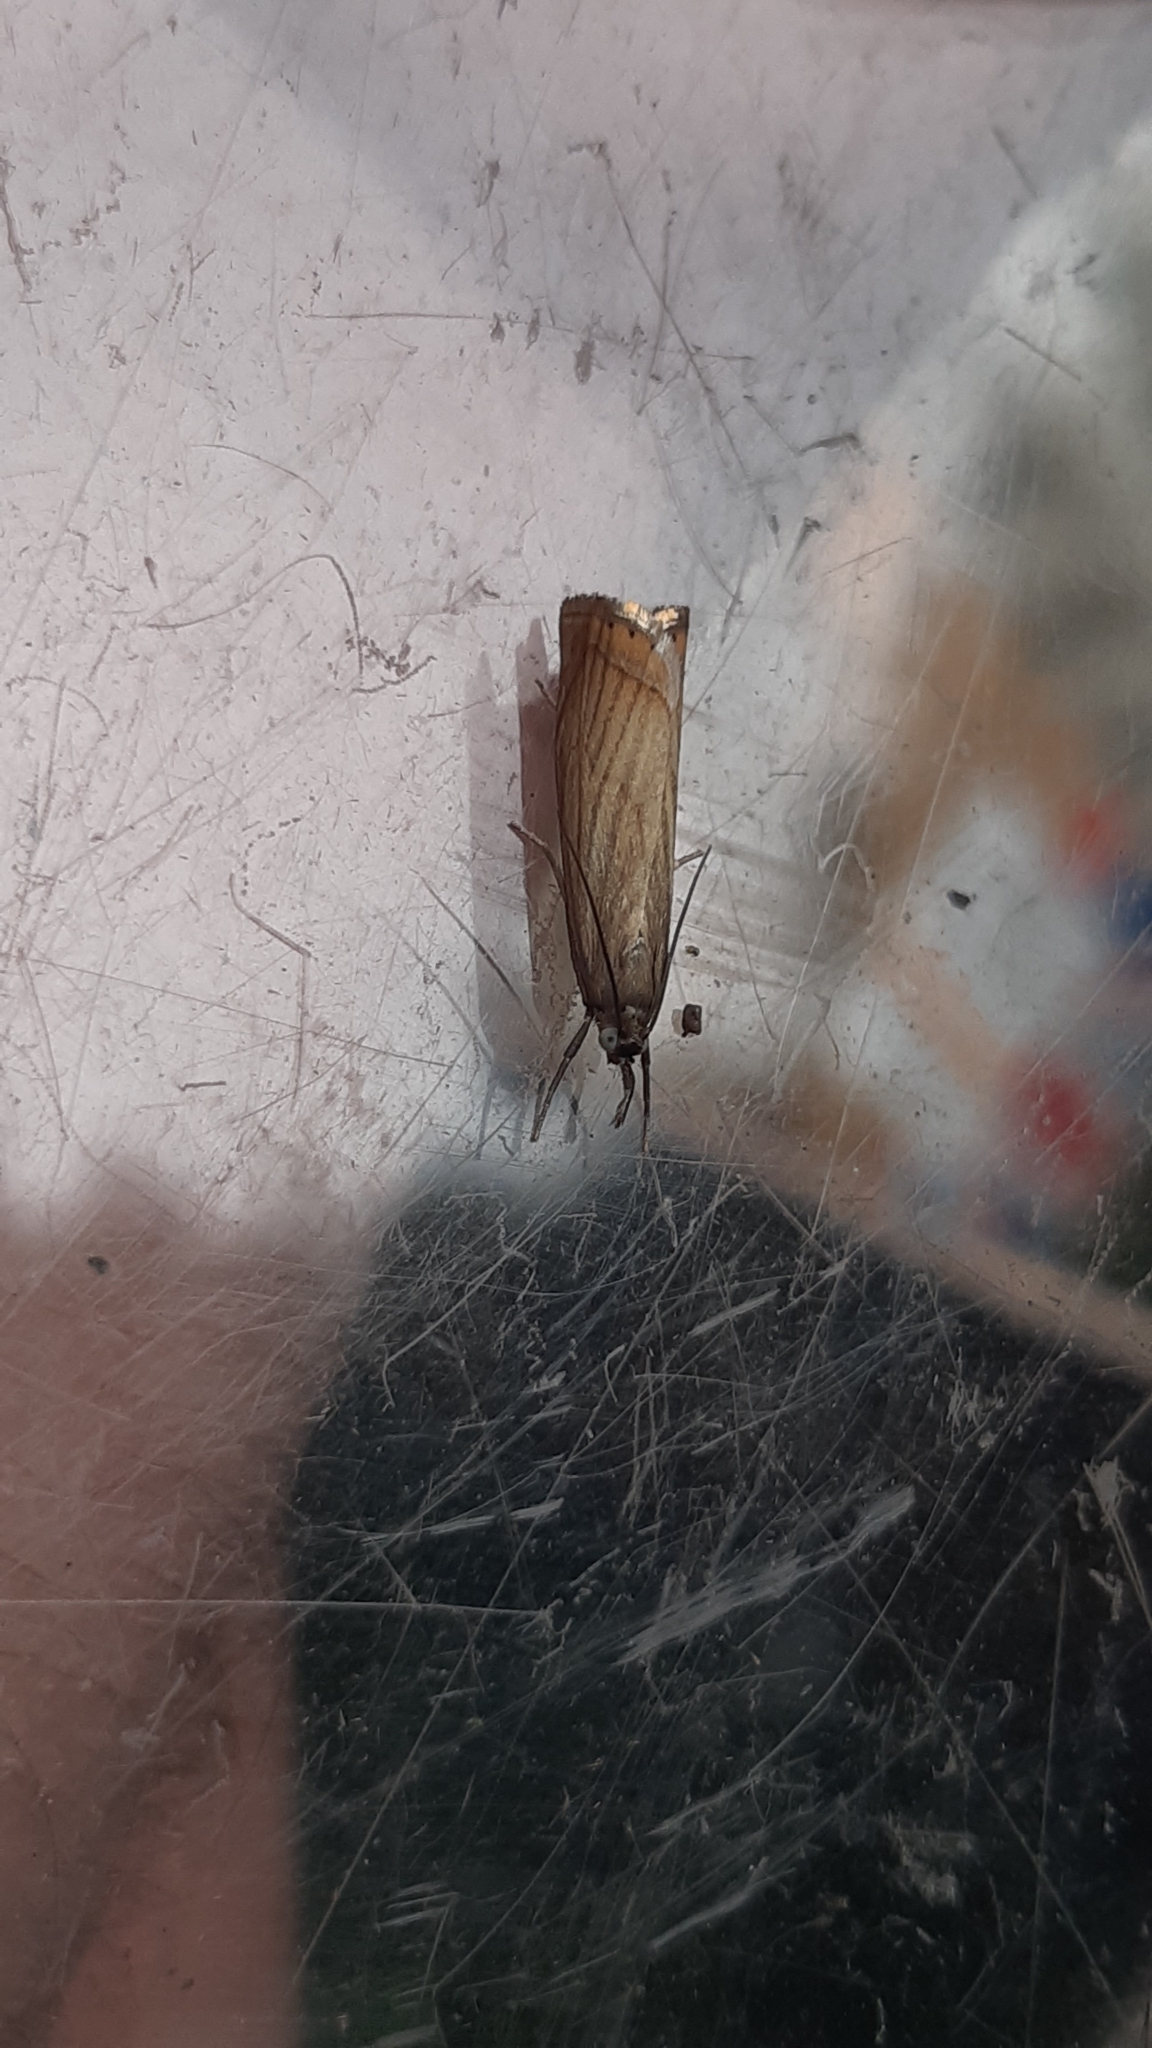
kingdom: Animalia
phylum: Arthropoda
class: Insecta
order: Lepidoptera
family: Crambidae
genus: Chrysoteuchia
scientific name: Chrysoteuchia culmella
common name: Garden grass-veneer
